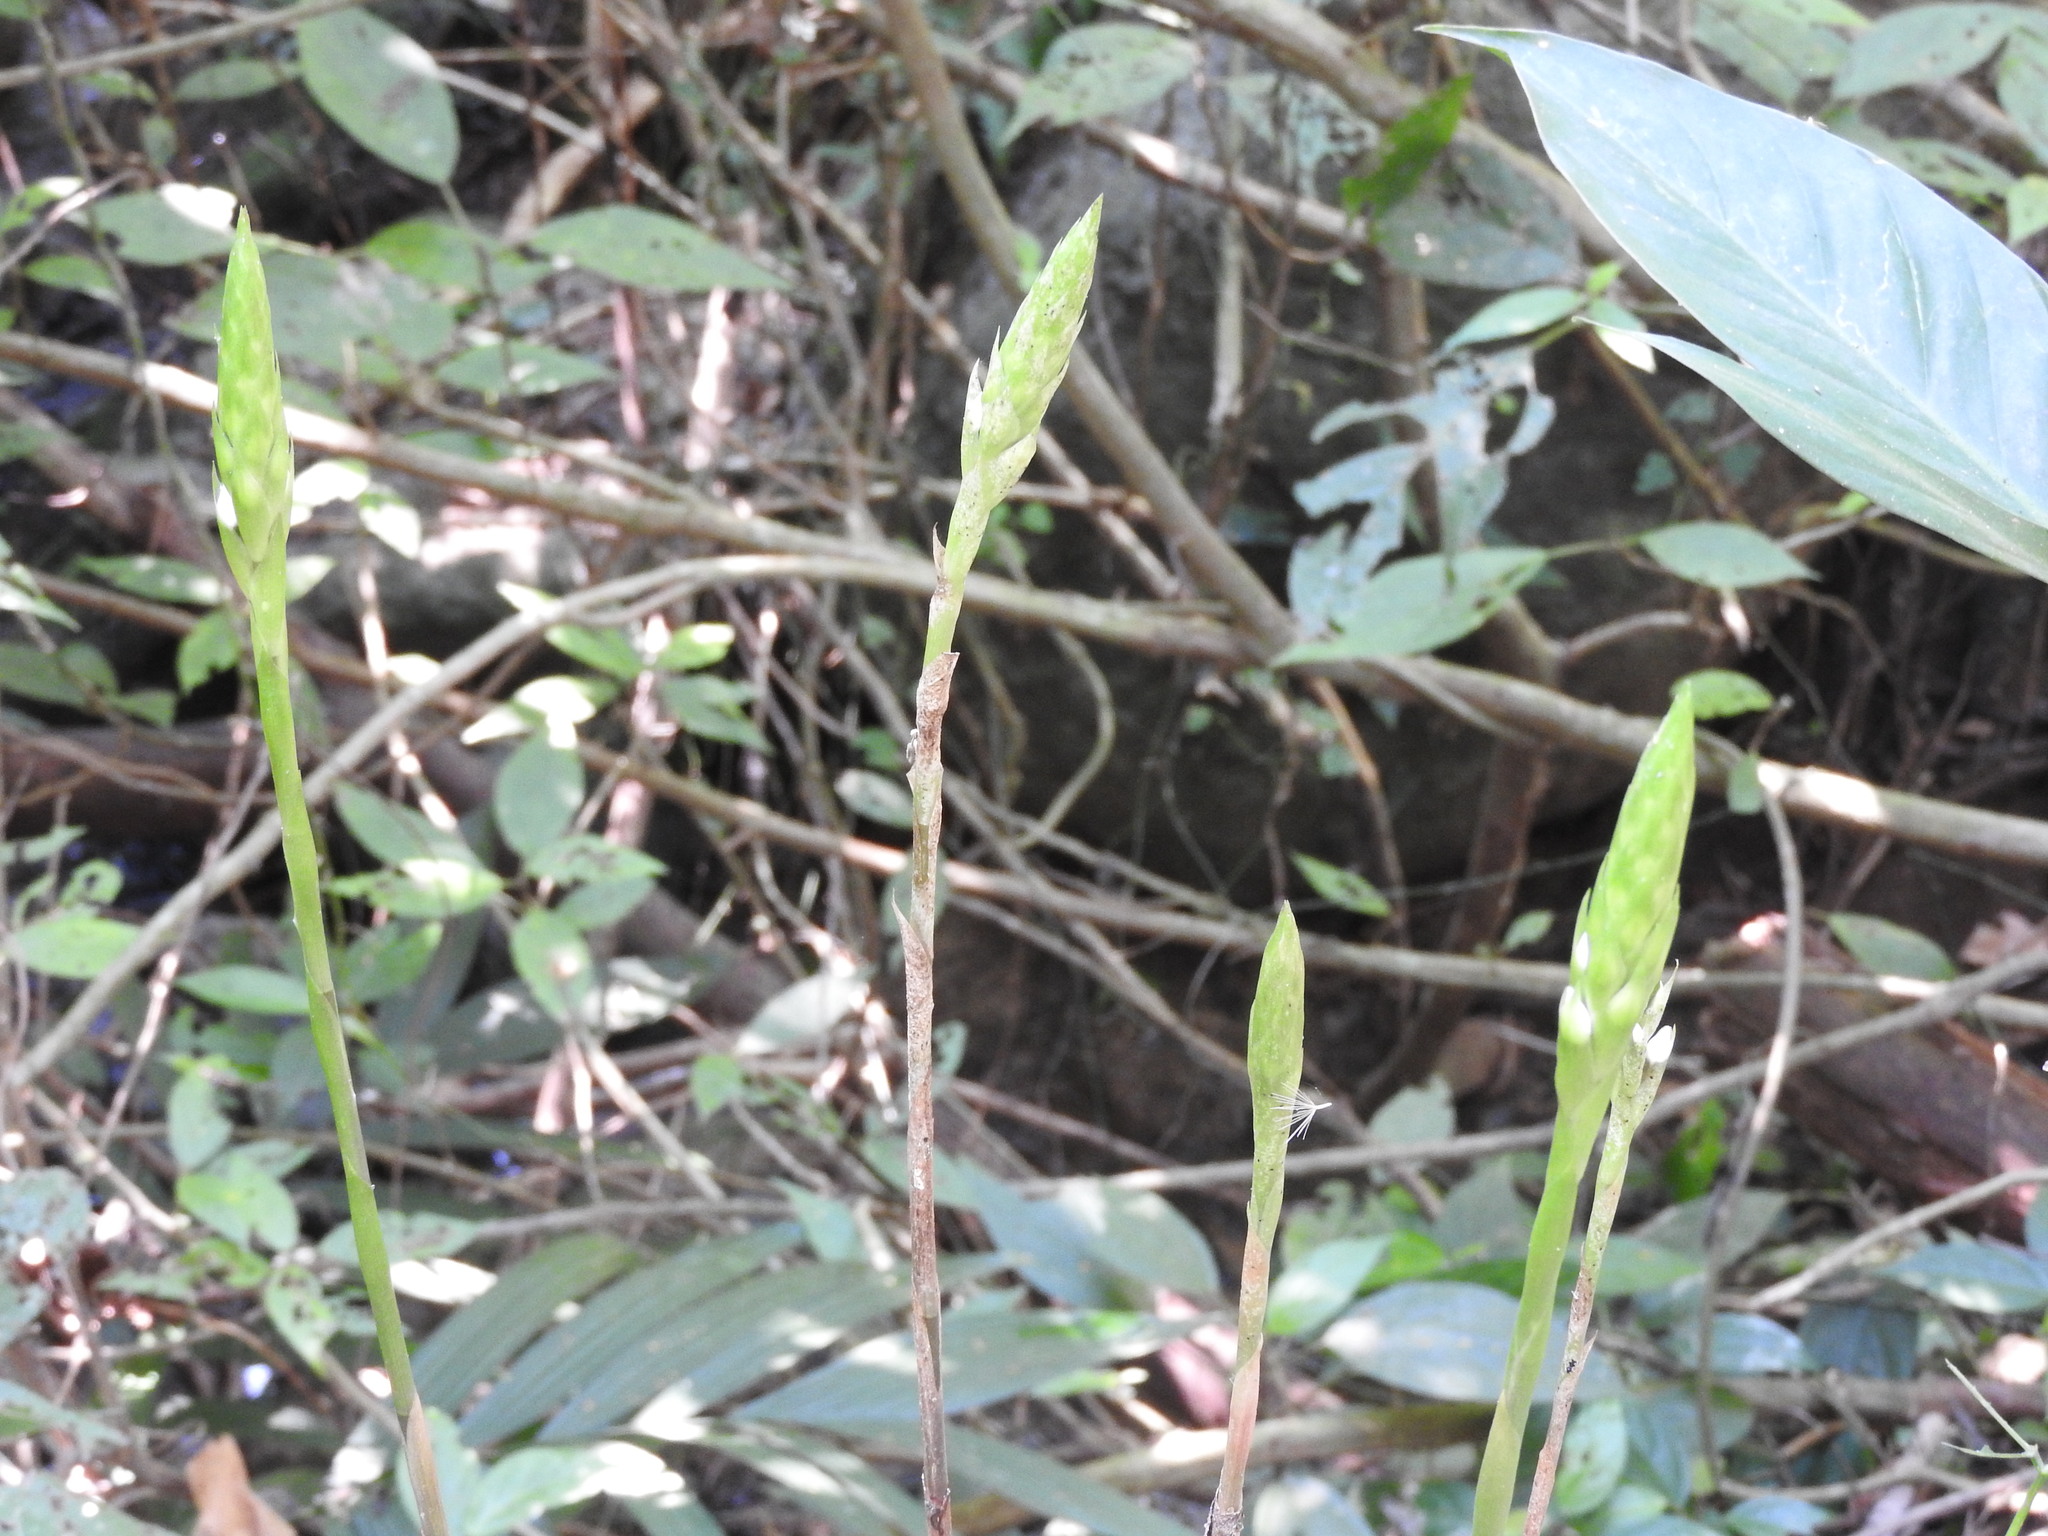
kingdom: Plantae
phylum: Tracheophyta
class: Liliopsida
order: Asparagales
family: Orchidaceae
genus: Aulosepalum
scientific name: Aulosepalum hemichrea
